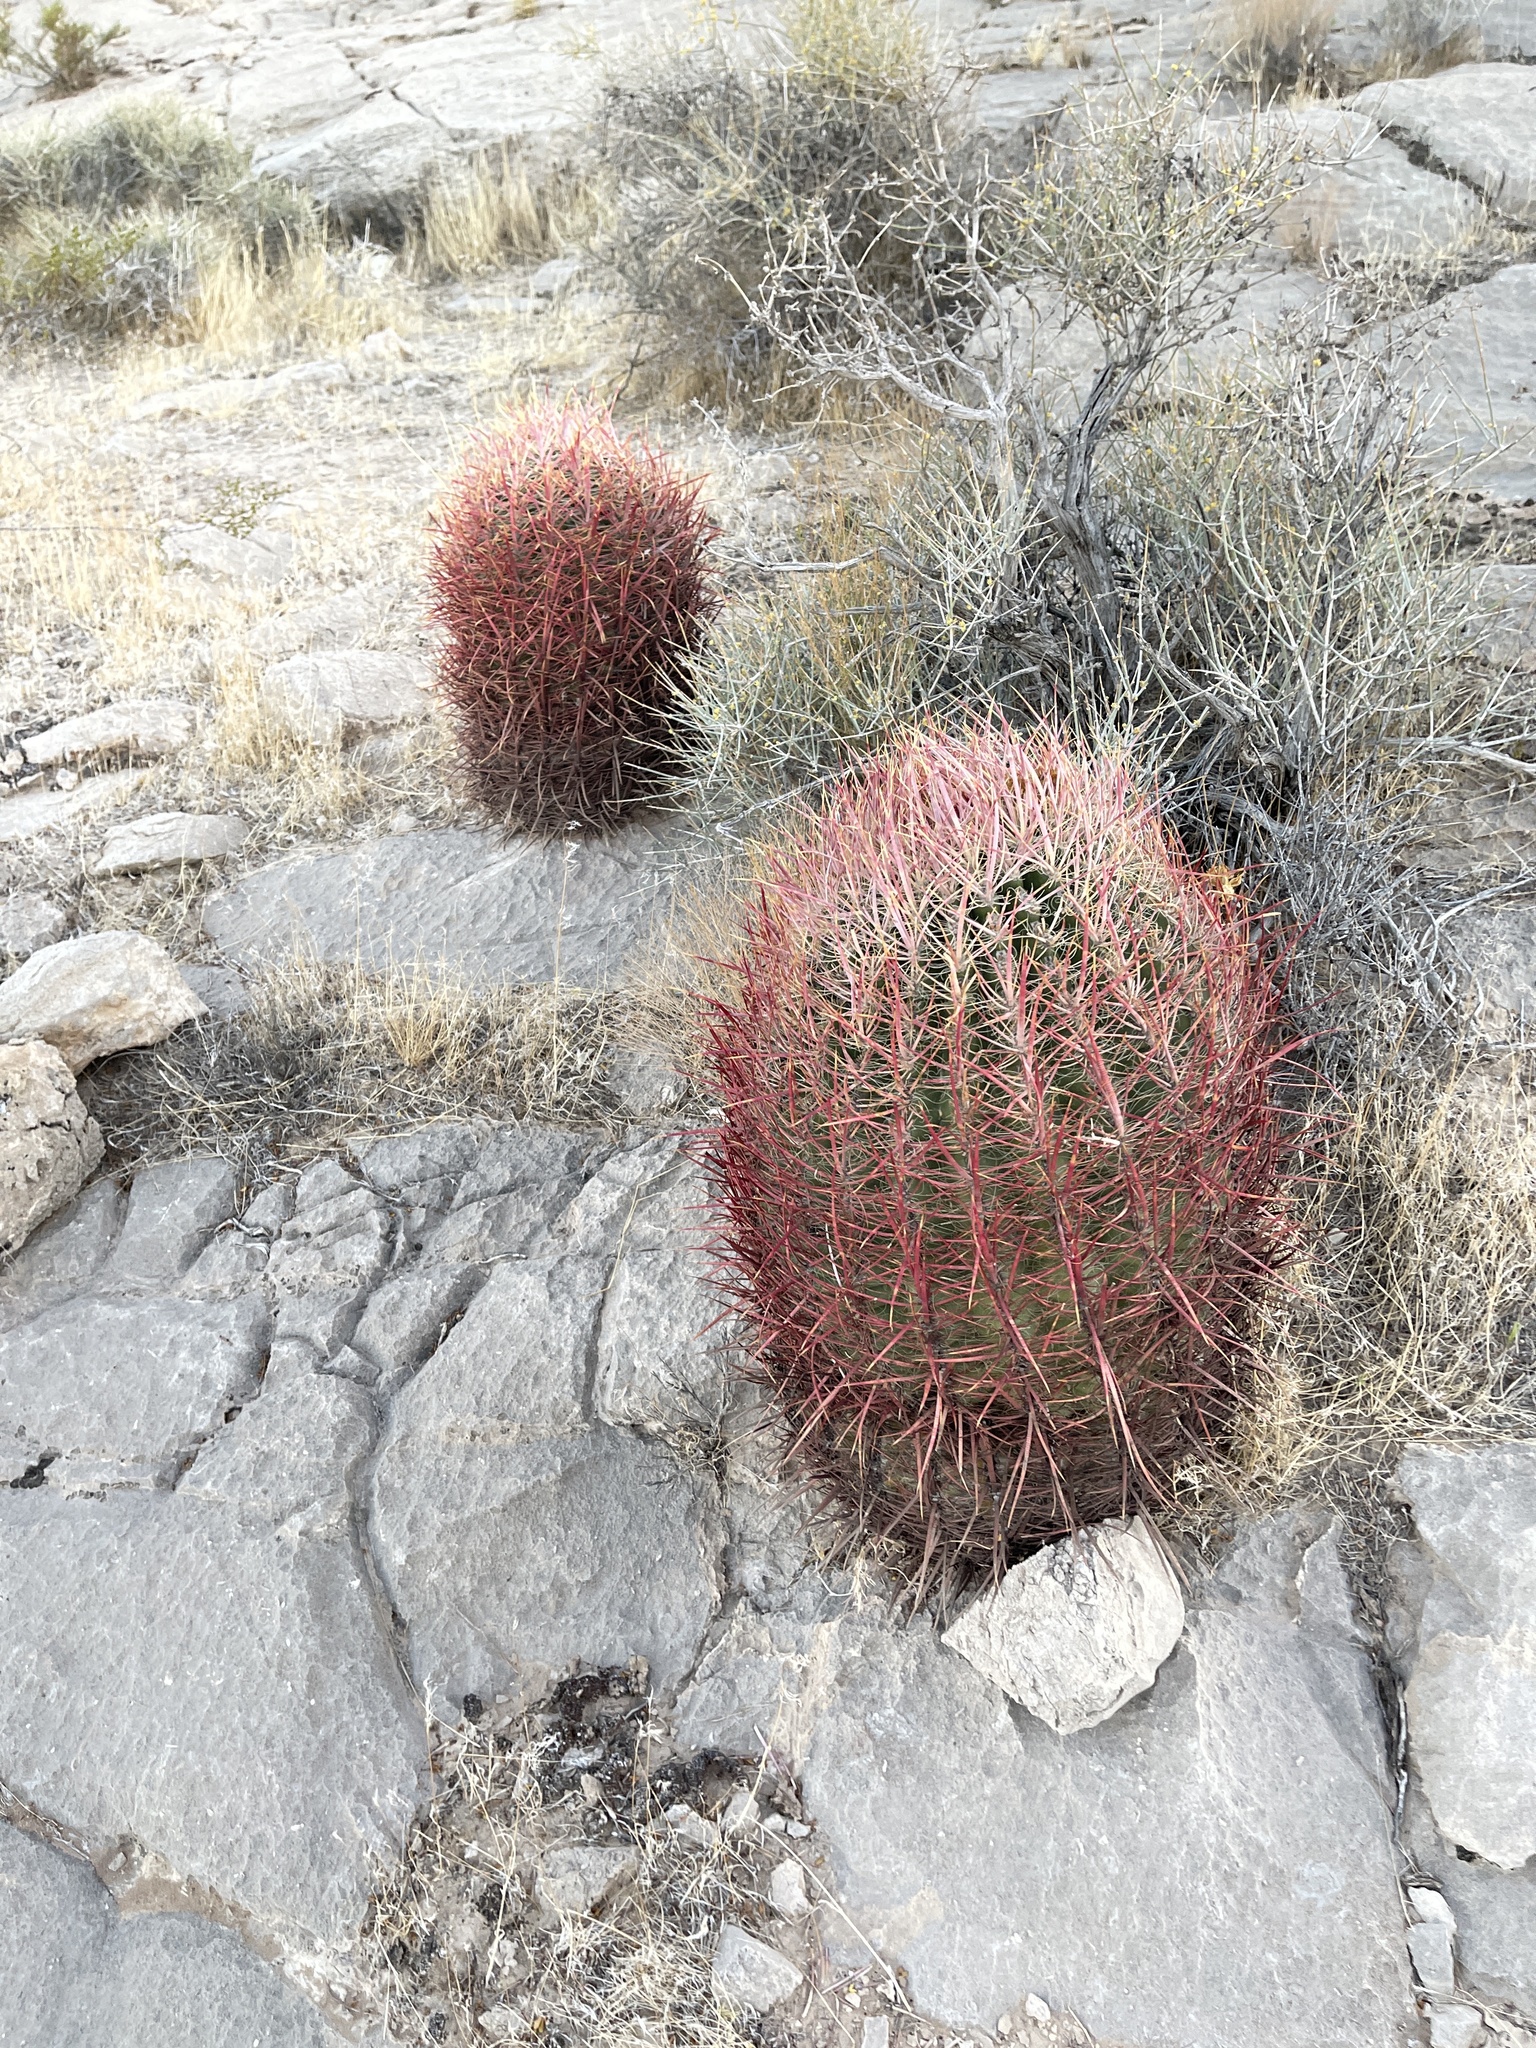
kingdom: Plantae
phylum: Tracheophyta
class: Magnoliopsida
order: Caryophyllales
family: Cactaceae
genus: Ferocactus
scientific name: Ferocactus cylindraceus
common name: California barrel cactus
